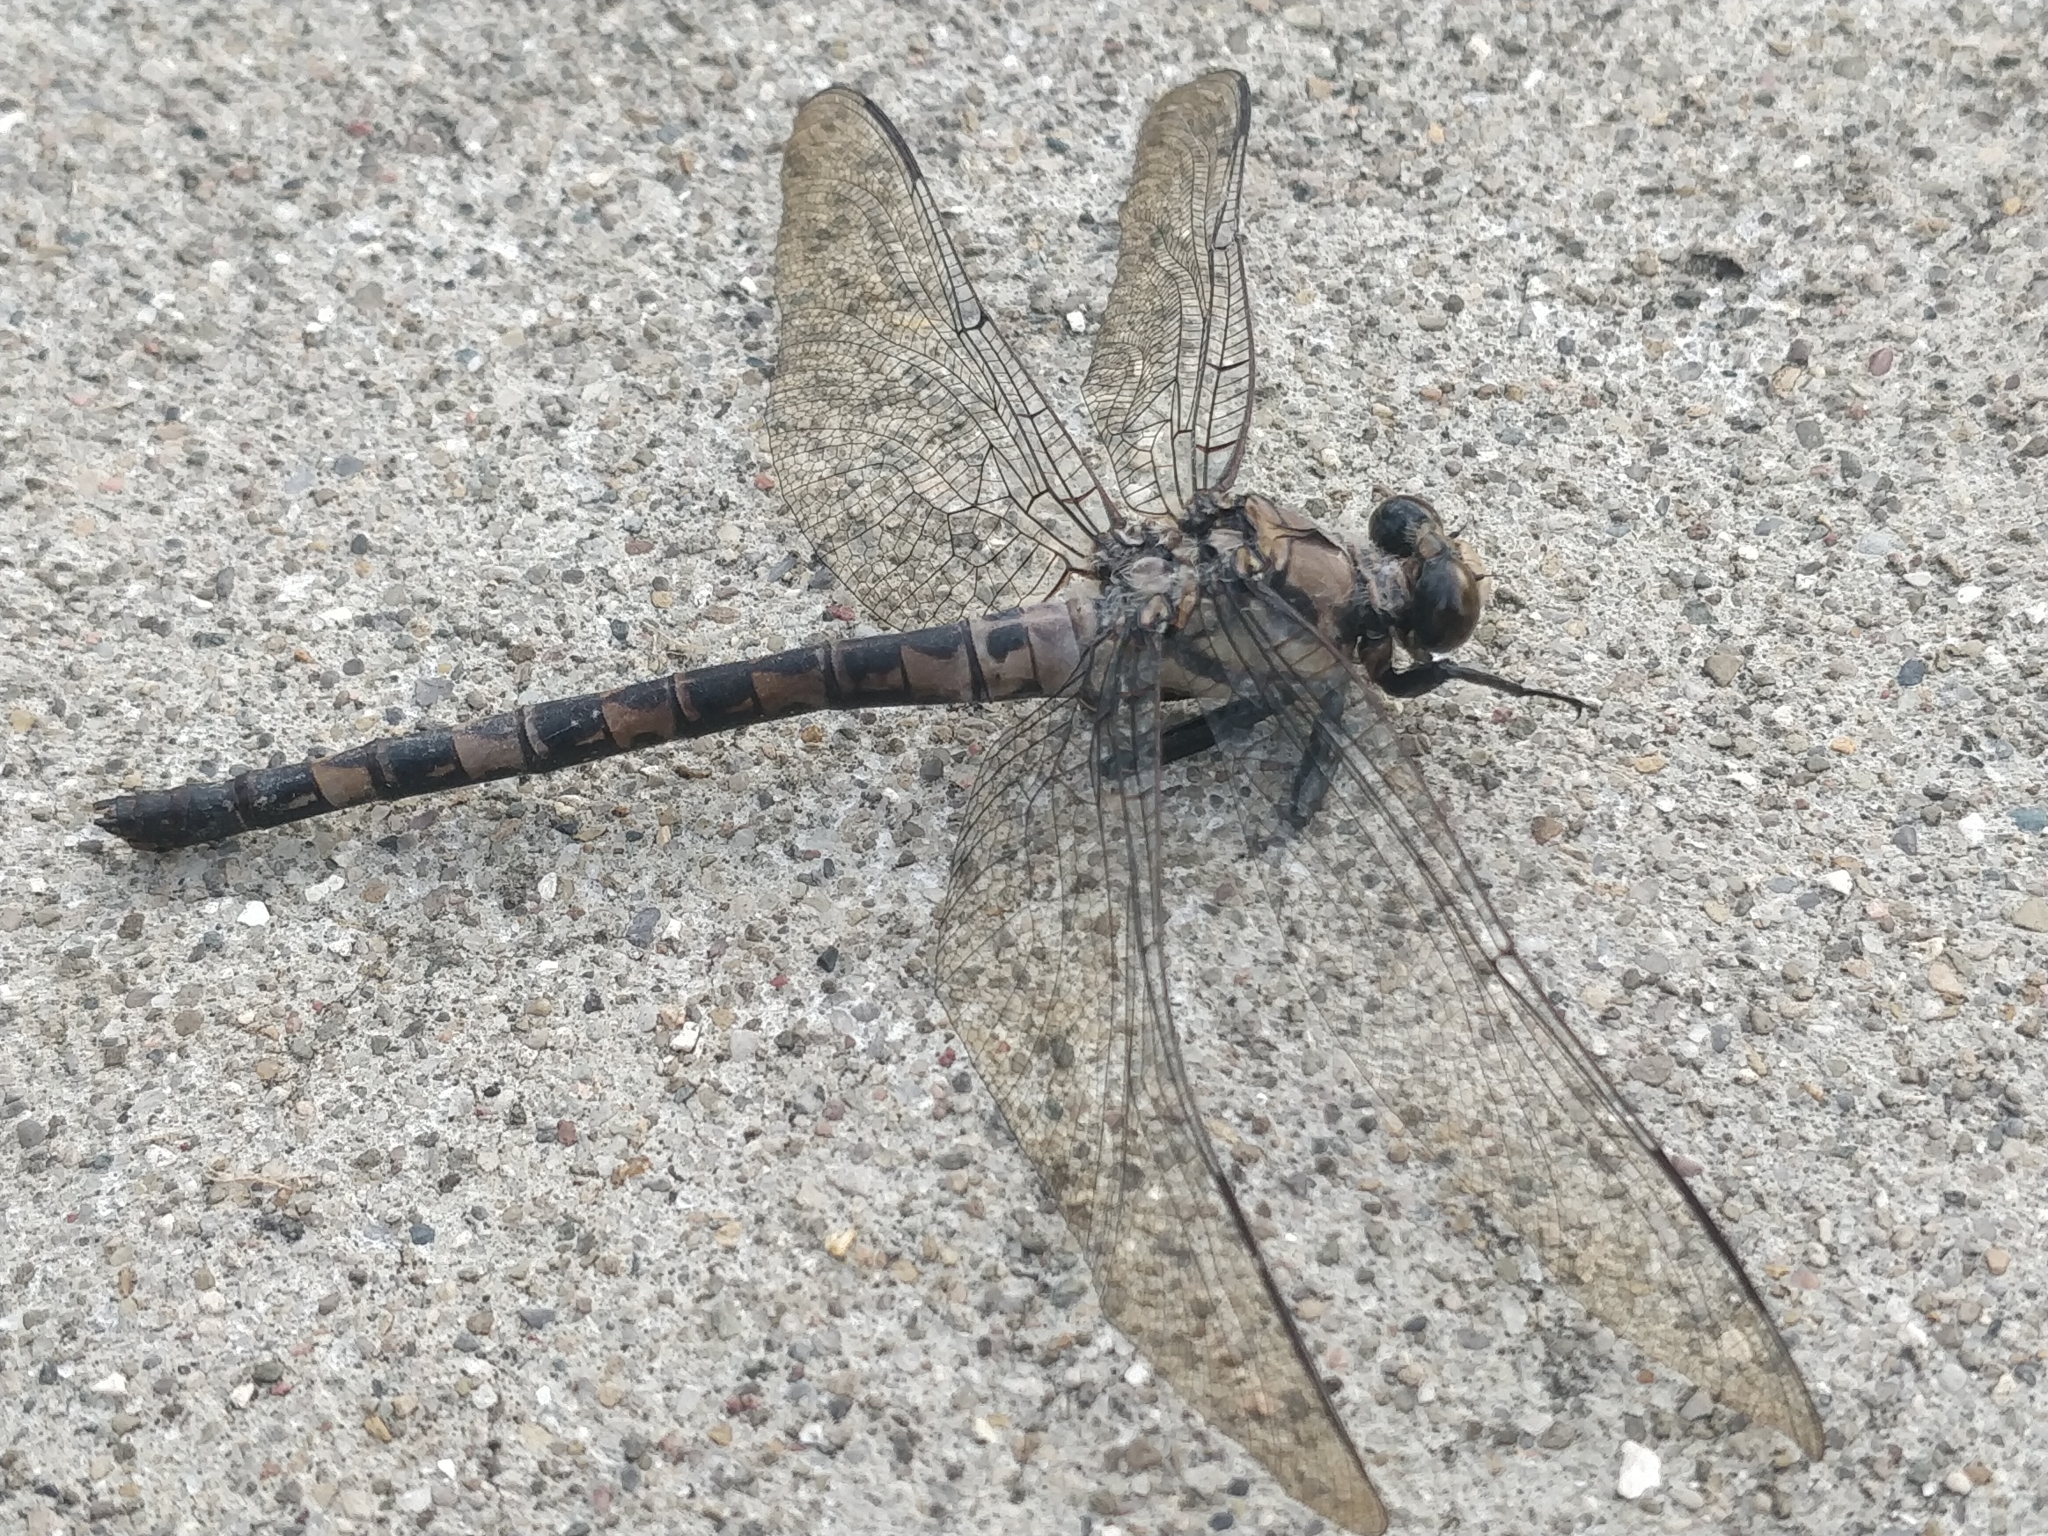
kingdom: Animalia
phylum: Arthropoda
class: Insecta
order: Odonata
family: Petaluridae
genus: Tachopteryx
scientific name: Tachopteryx thoreyi
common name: Gray petaltail
